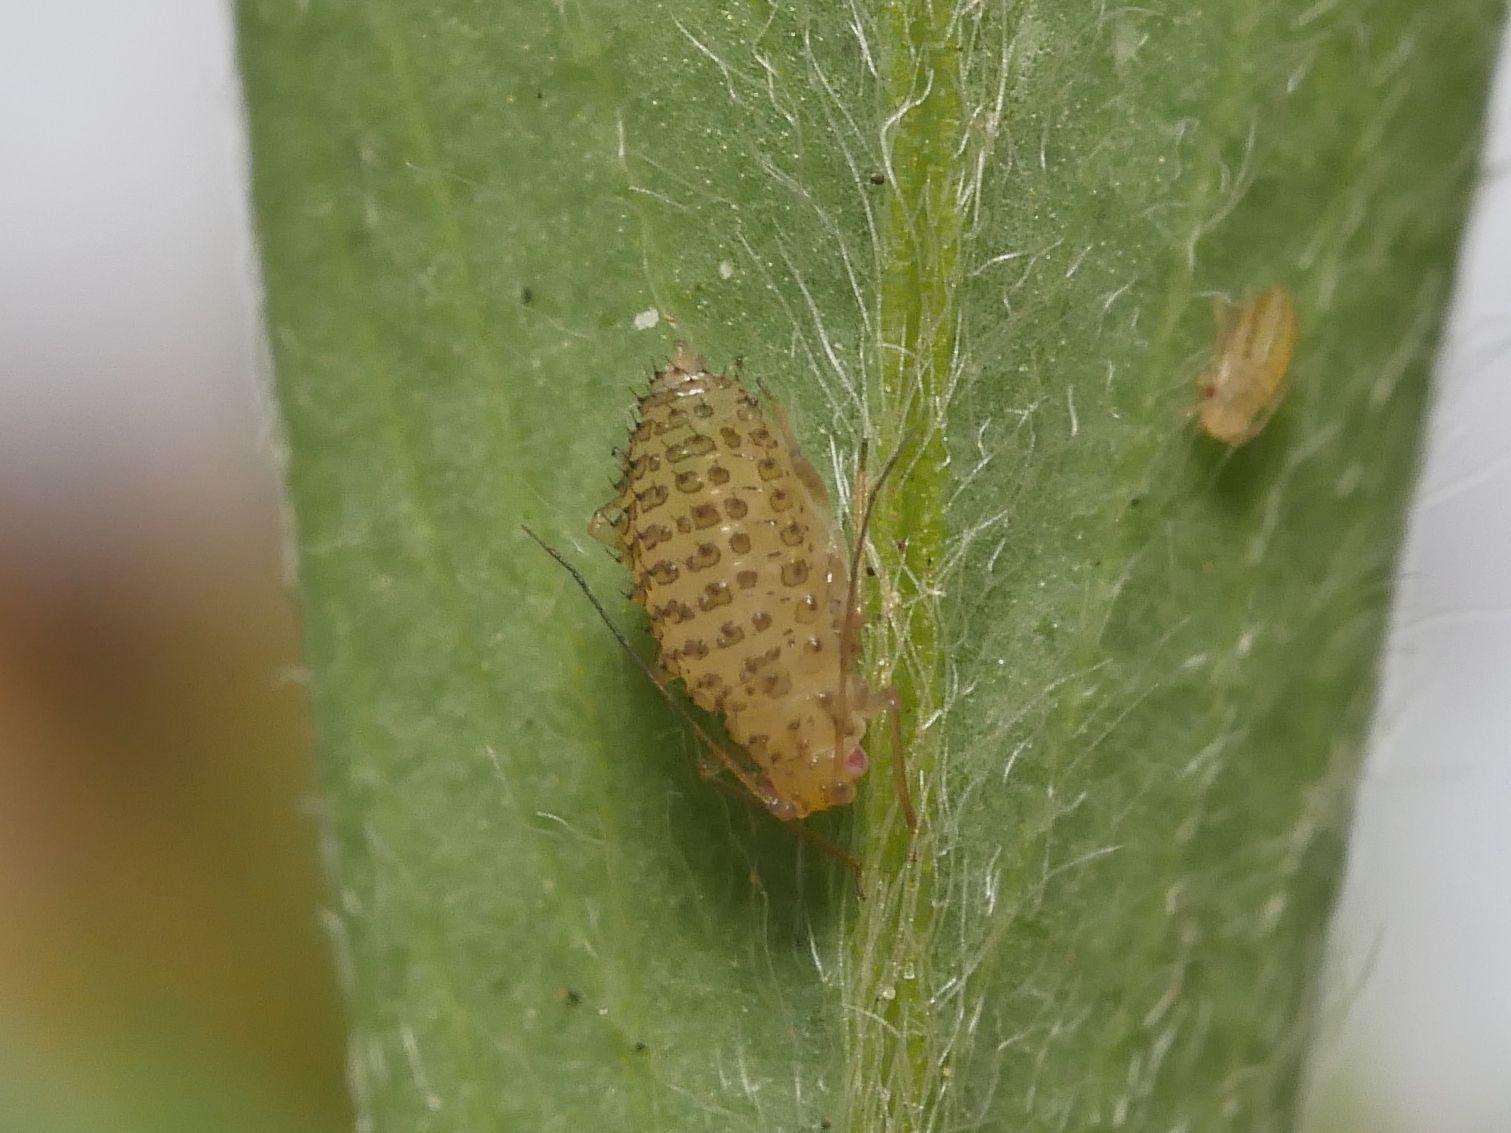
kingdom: Animalia
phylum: Arthropoda
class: Insecta
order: Hemiptera
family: Aphididae
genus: Therioaphis
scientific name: Therioaphis trifolii
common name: Spotted alfalfa aphid
